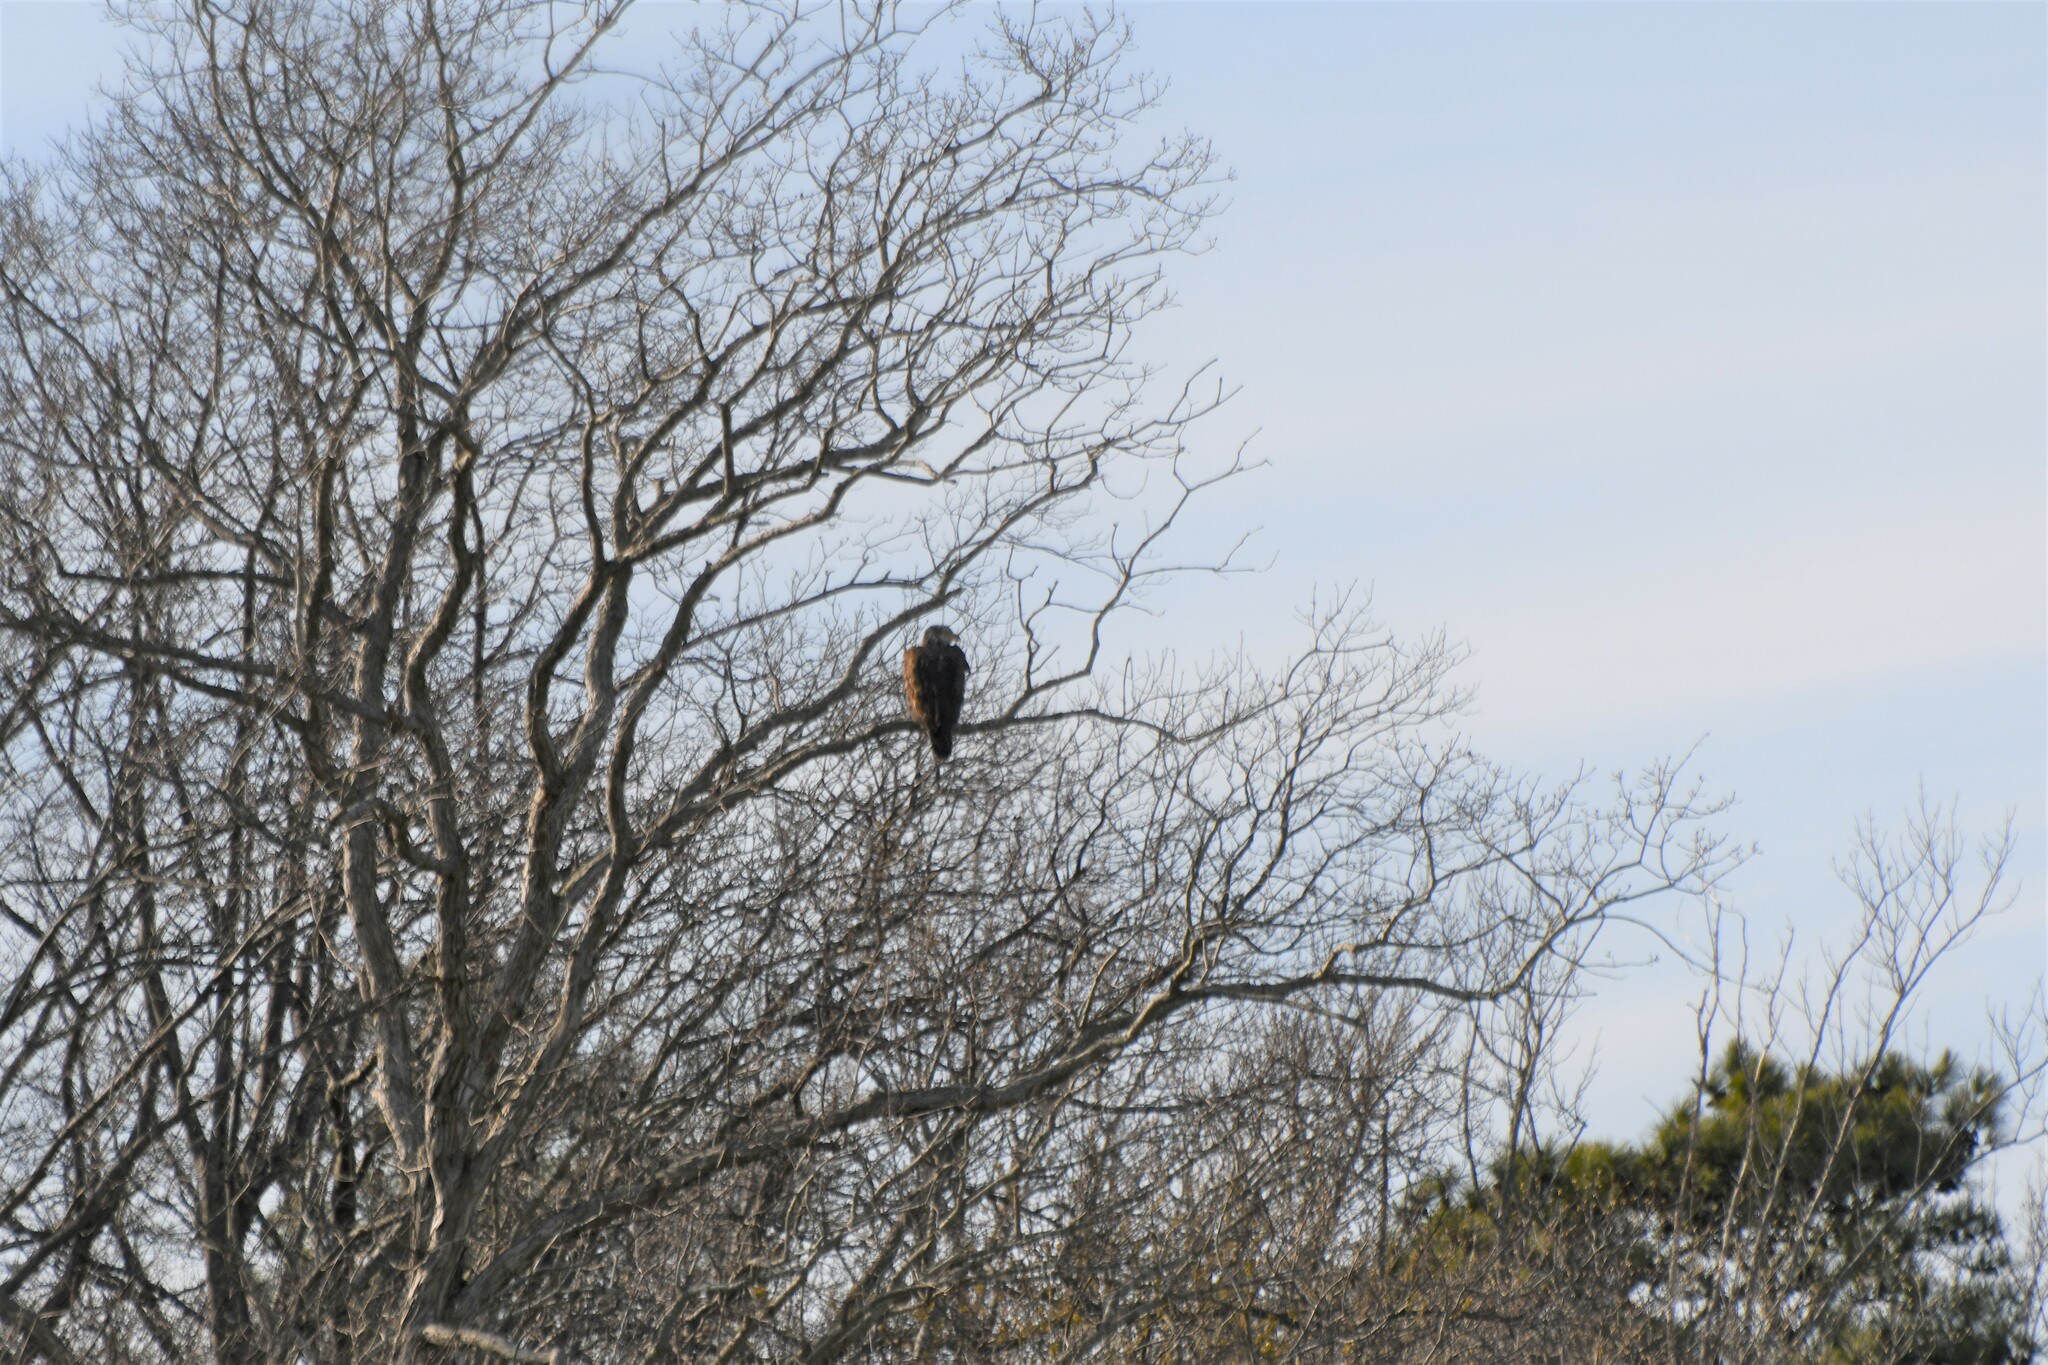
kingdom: Animalia
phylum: Chordata
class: Aves
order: Accipitriformes
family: Accipitridae
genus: Haliaeetus
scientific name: Haliaeetus leucocephalus
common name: Bald eagle
